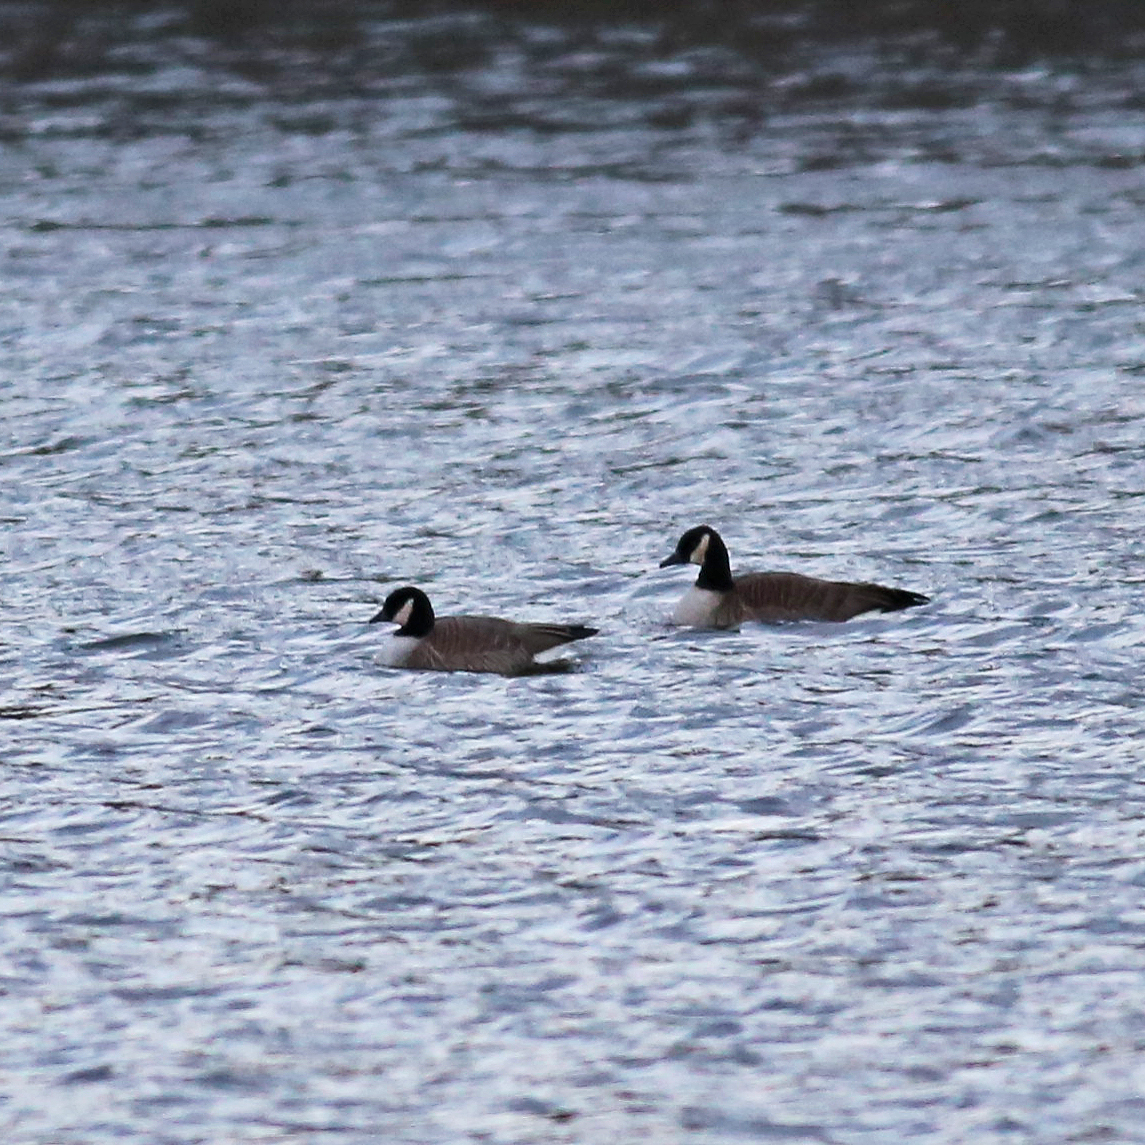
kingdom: Animalia
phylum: Chordata
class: Aves
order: Anseriformes
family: Anatidae
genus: Branta
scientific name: Branta canadensis
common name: Canada goose
